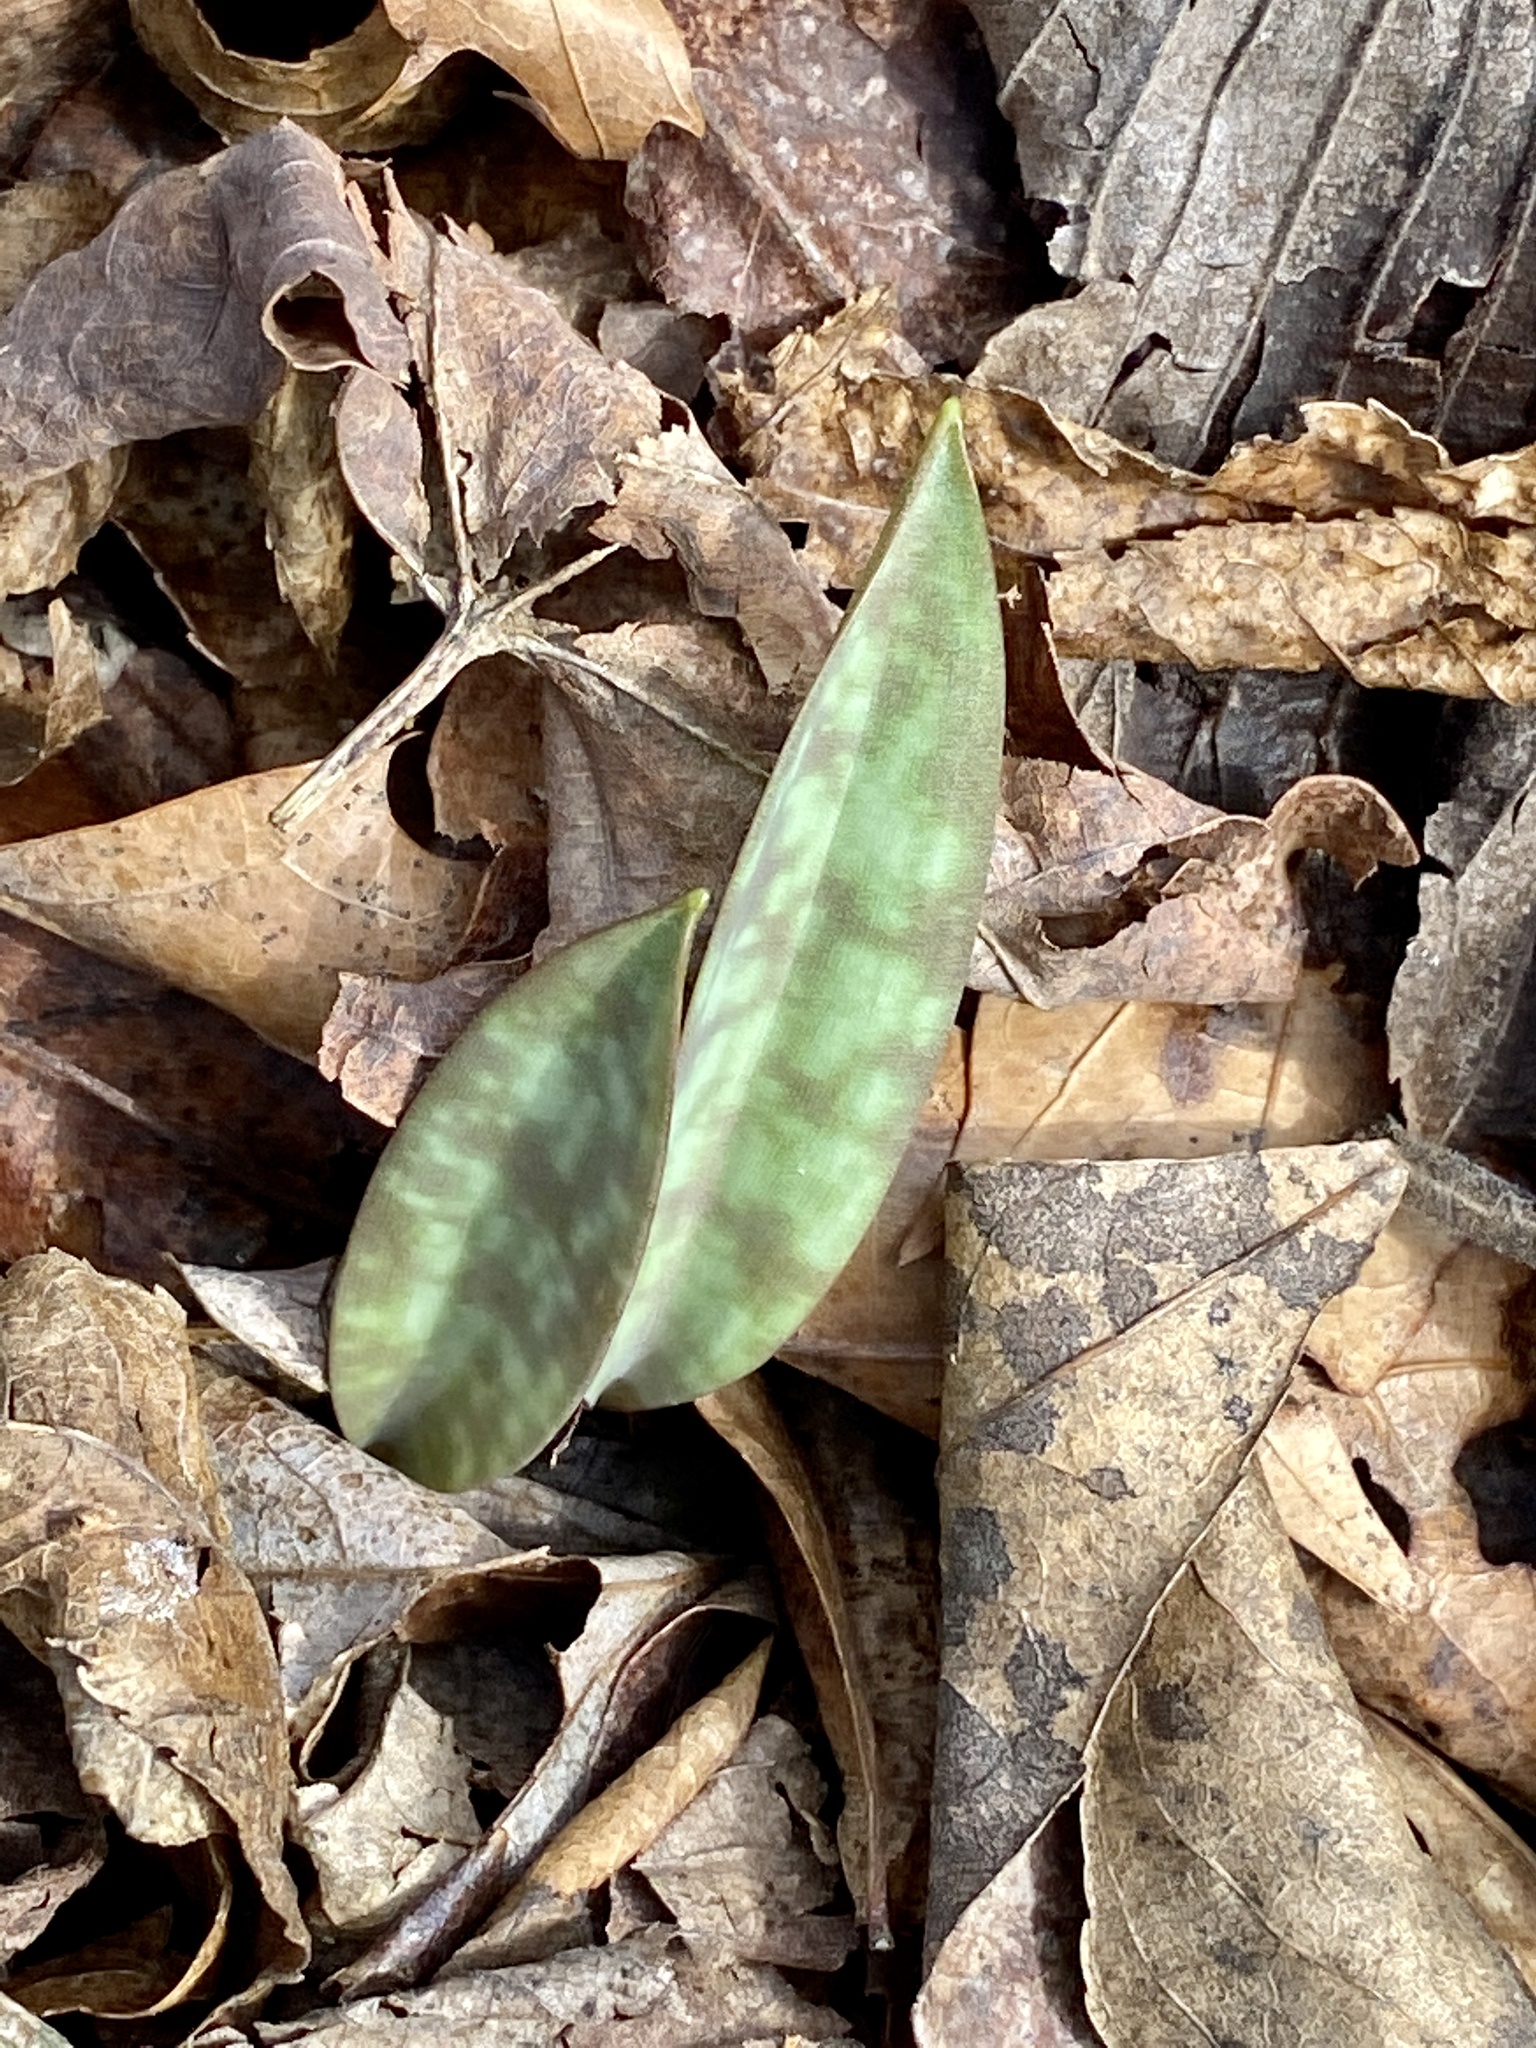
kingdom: Plantae
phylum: Tracheophyta
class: Liliopsida
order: Liliales
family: Liliaceae
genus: Erythronium
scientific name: Erythronium americanum
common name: Yellow adder's-tongue
